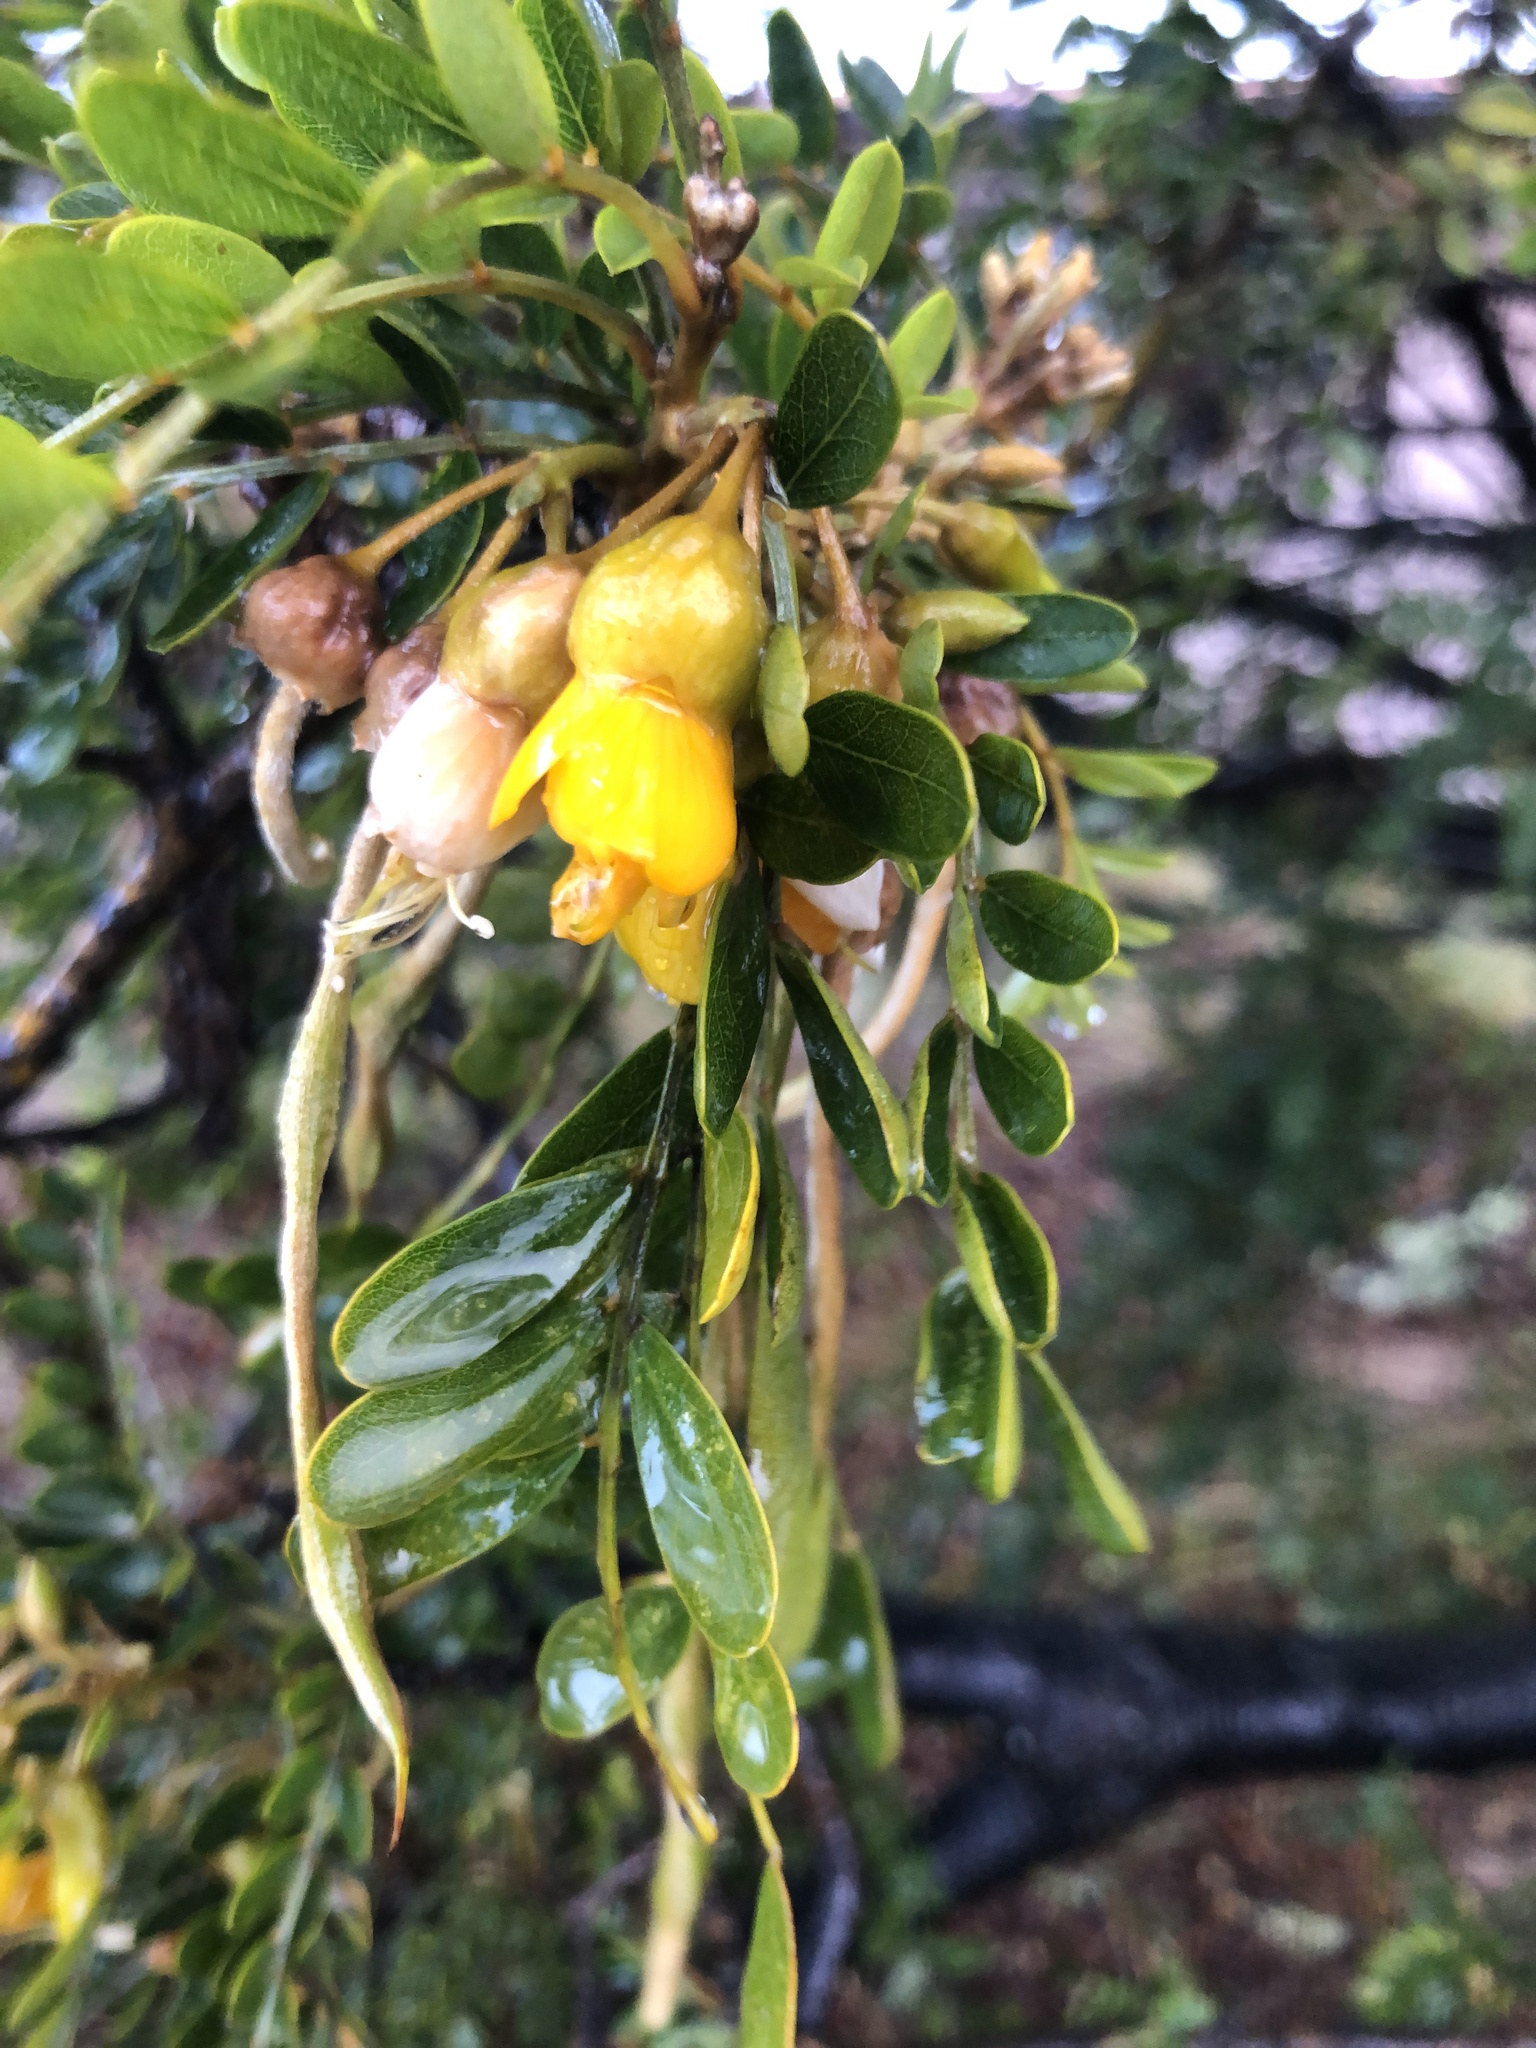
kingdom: Plantae
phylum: Tracheophyta
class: Magnoliopsida
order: Fabales
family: Fabaceae
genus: Sophora
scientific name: Sophora chrysophylla
